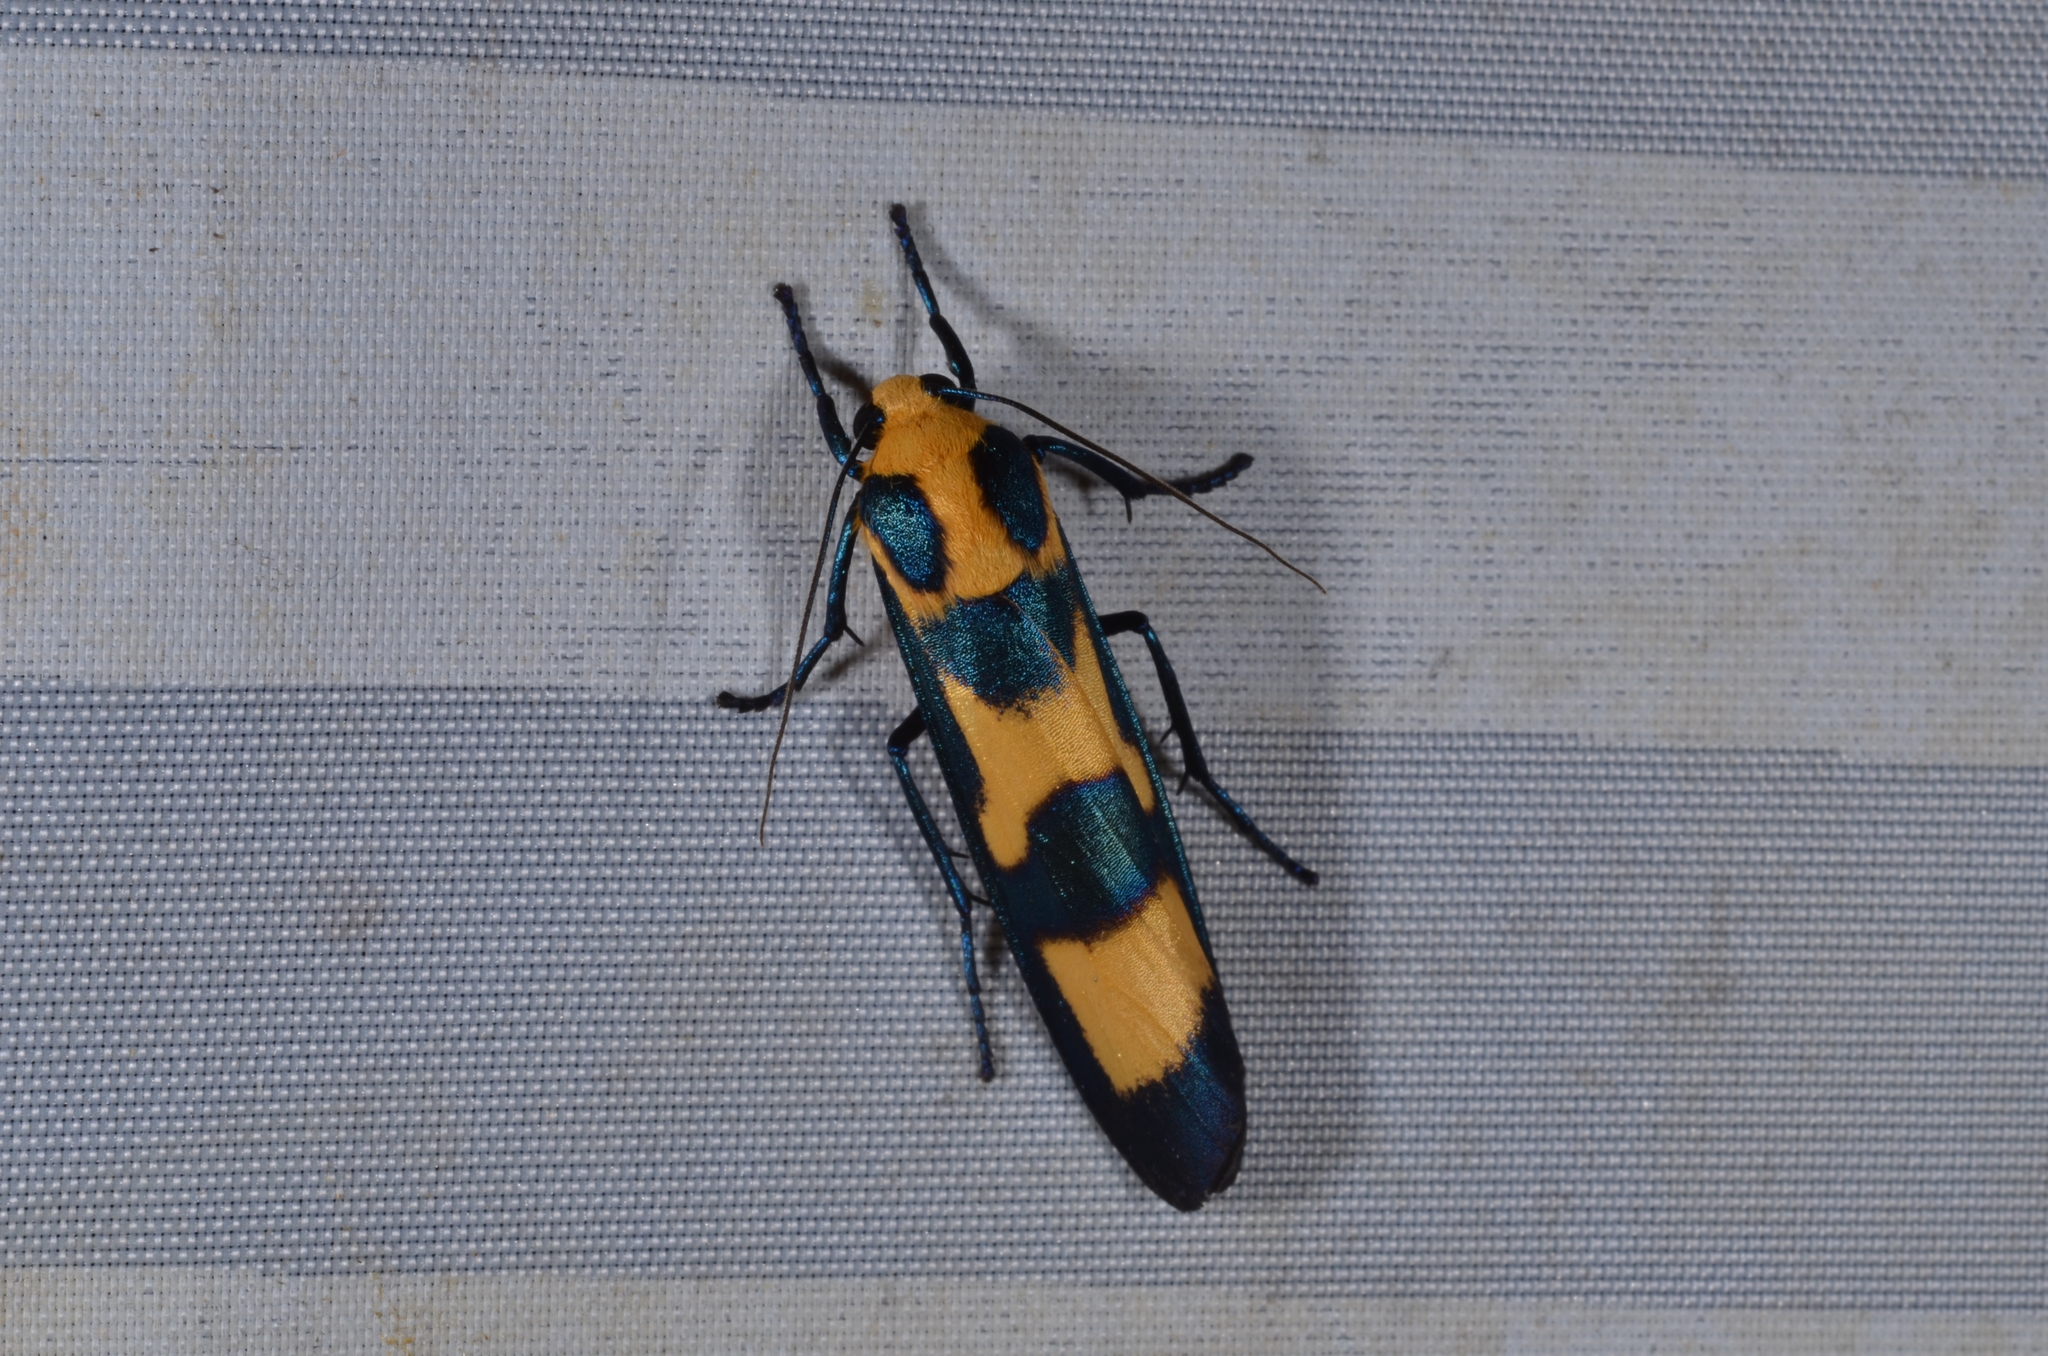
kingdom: Animalia
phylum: Arthropoda
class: Insecta
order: Lepidoptera
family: Erebidae
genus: Chrysaeglia
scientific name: Chrysaeglia magnifica
